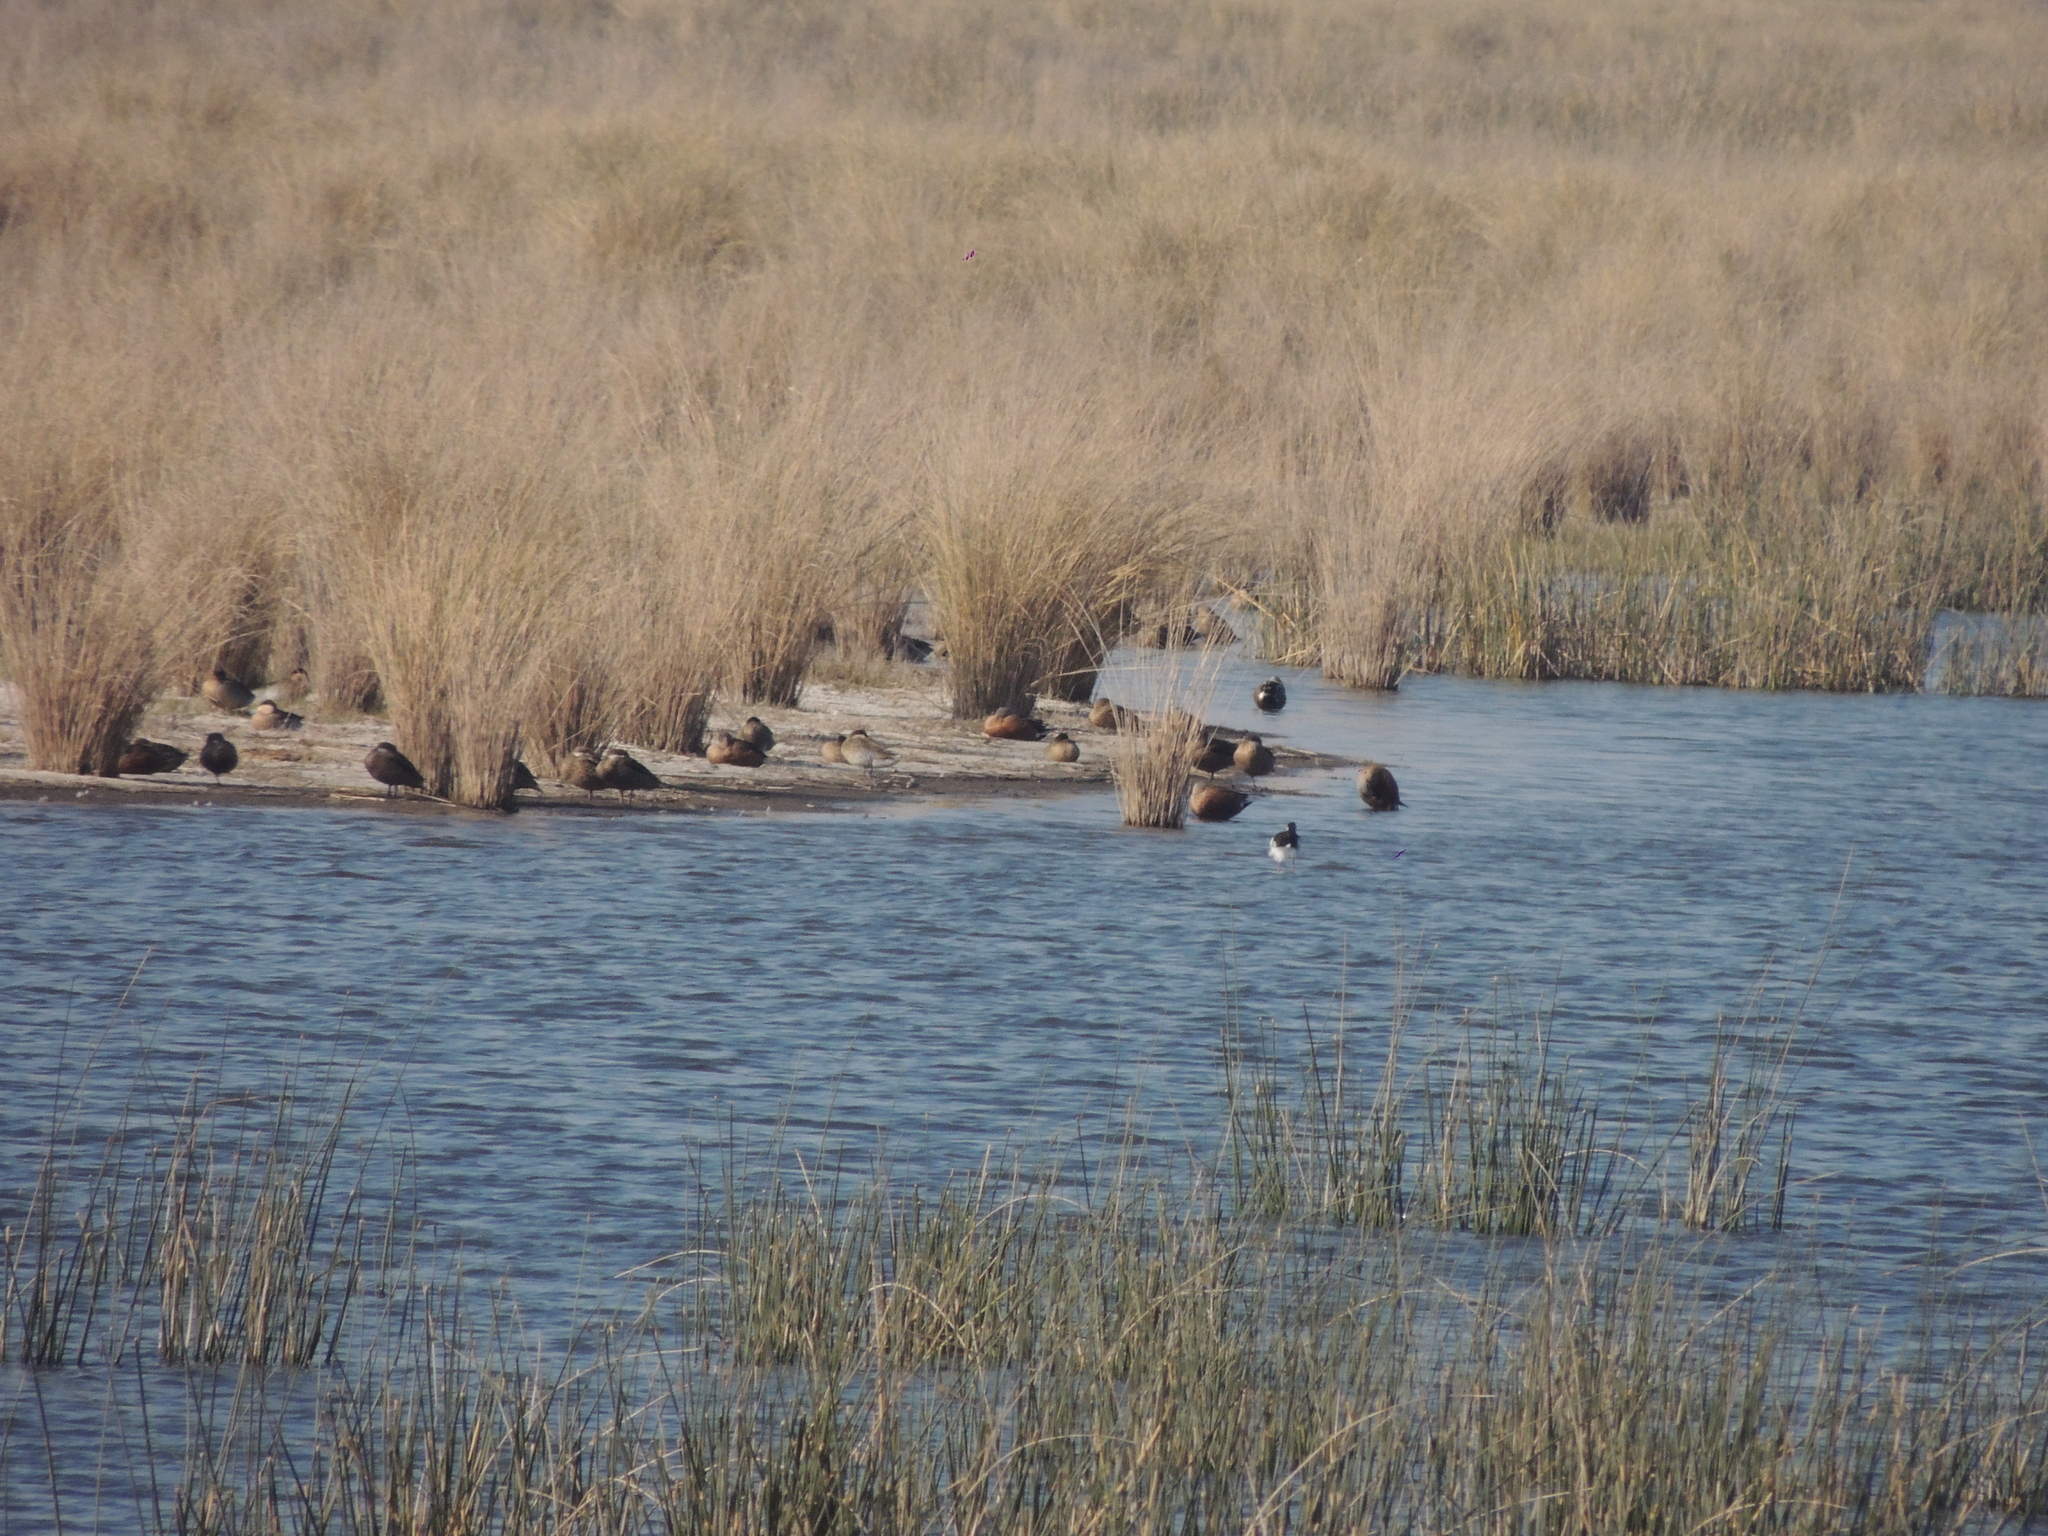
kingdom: Animalia
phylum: Chordata
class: Aves
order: Anseriformes
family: Anatidae
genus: Spatula
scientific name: Spatula platalea
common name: Red shoveler
